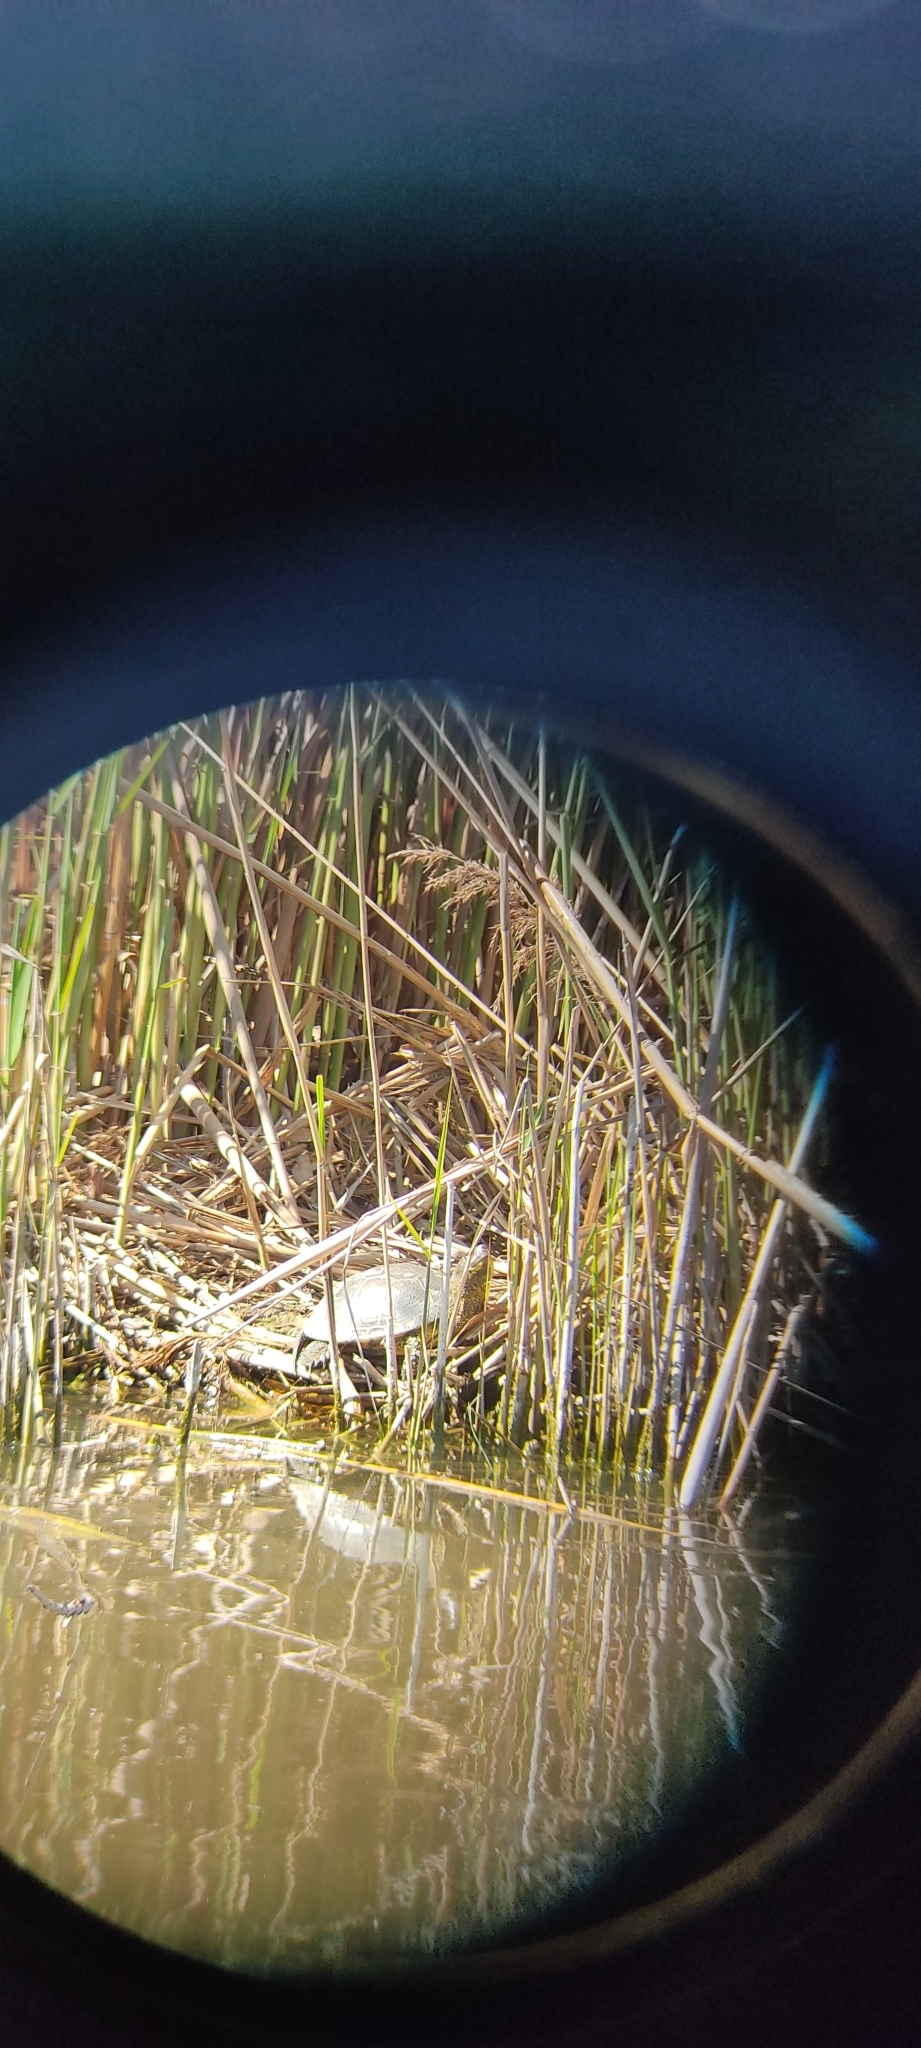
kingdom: Animalia
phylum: Chordata
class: Testudines
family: Emydidae
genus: Emys
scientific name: Emys orbicularis
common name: European pond turtle
